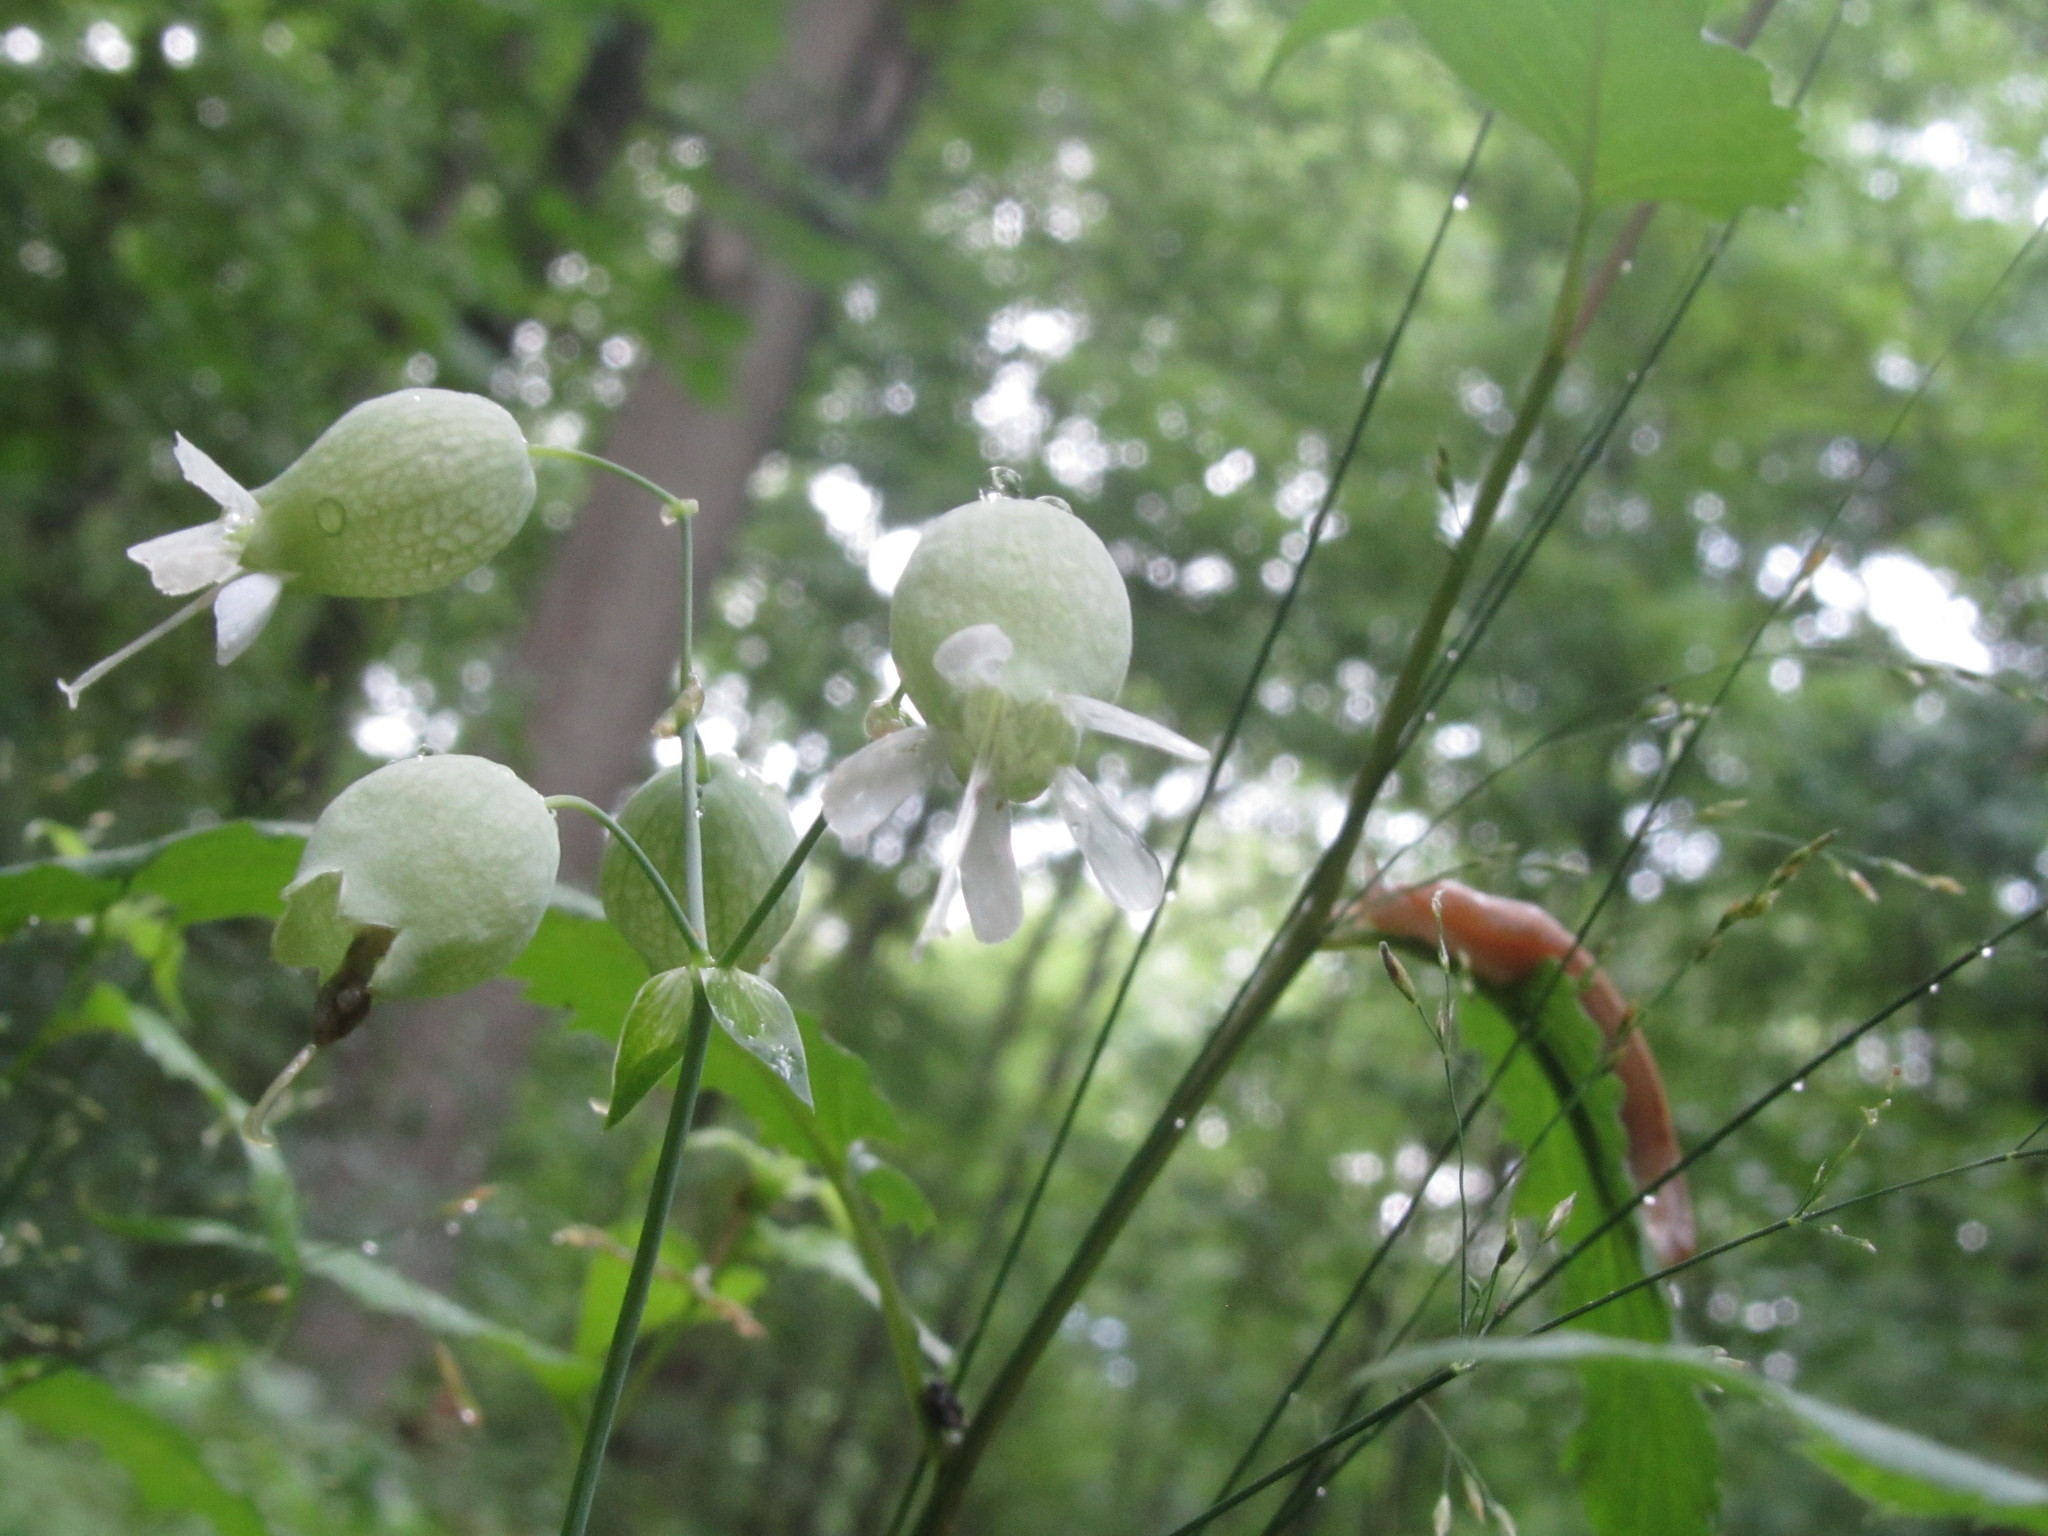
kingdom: Plantae
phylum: Tracheophyta
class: Magnoliopsida
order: Caryophyllales
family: Caryophyllaceae
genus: Silene
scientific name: Silene vulgaris
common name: Bladder campion
